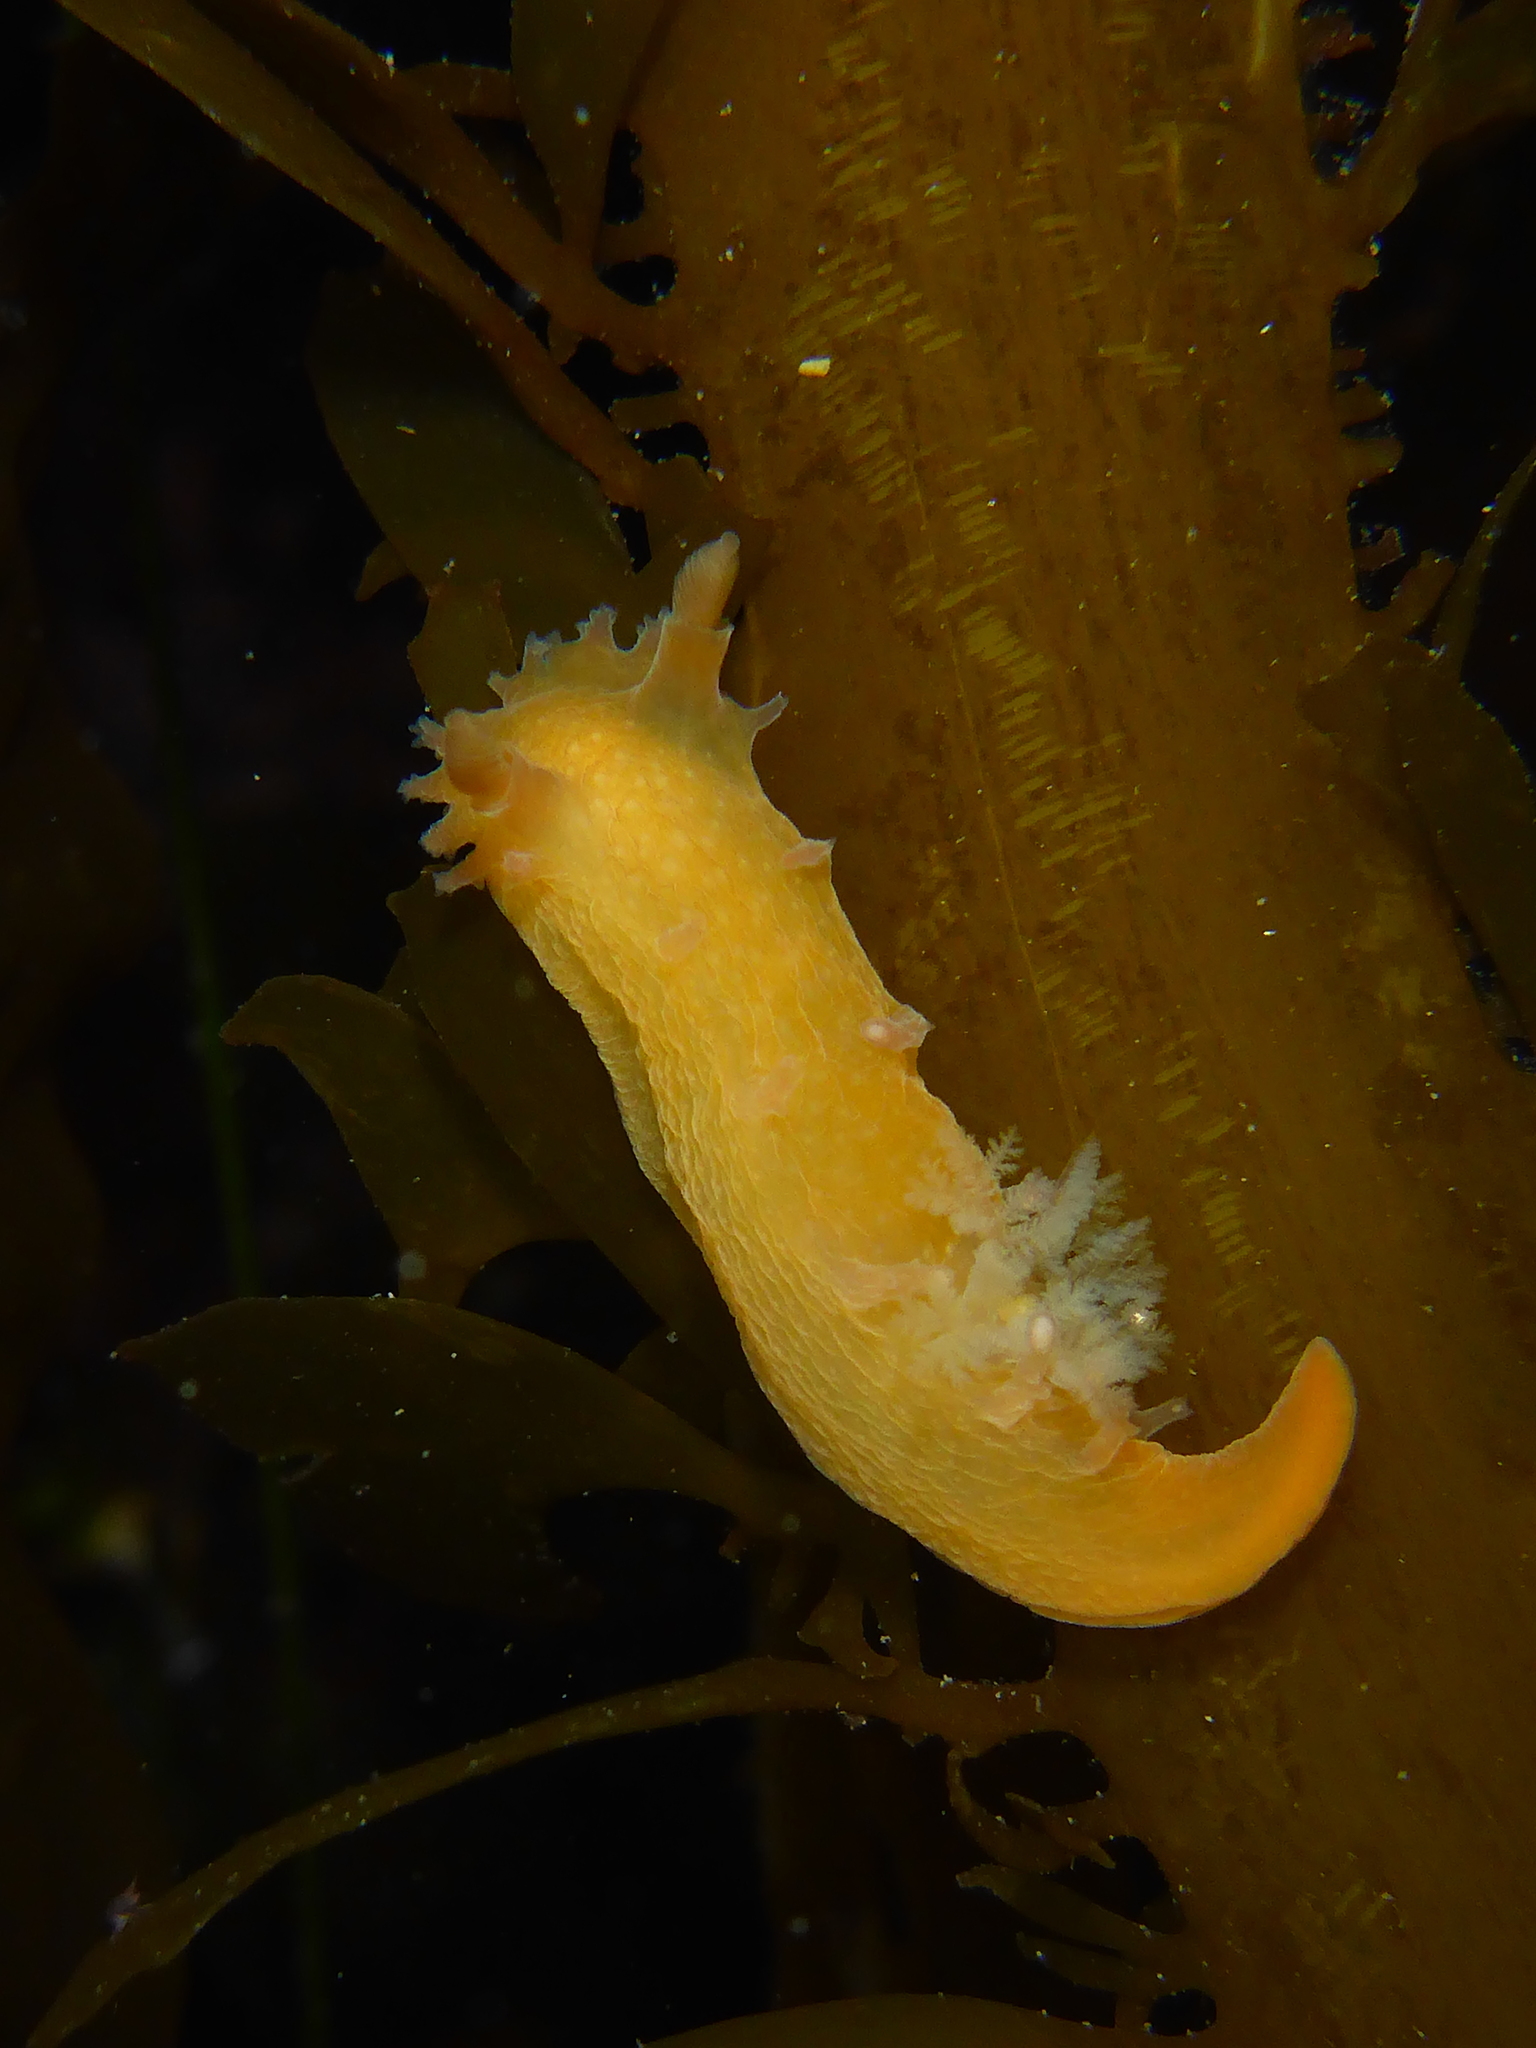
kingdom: Animalia
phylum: Mollusca
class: Gastropoda
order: Nudibranchia
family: Polyceridae
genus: Triopha
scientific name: Triopha maculata
